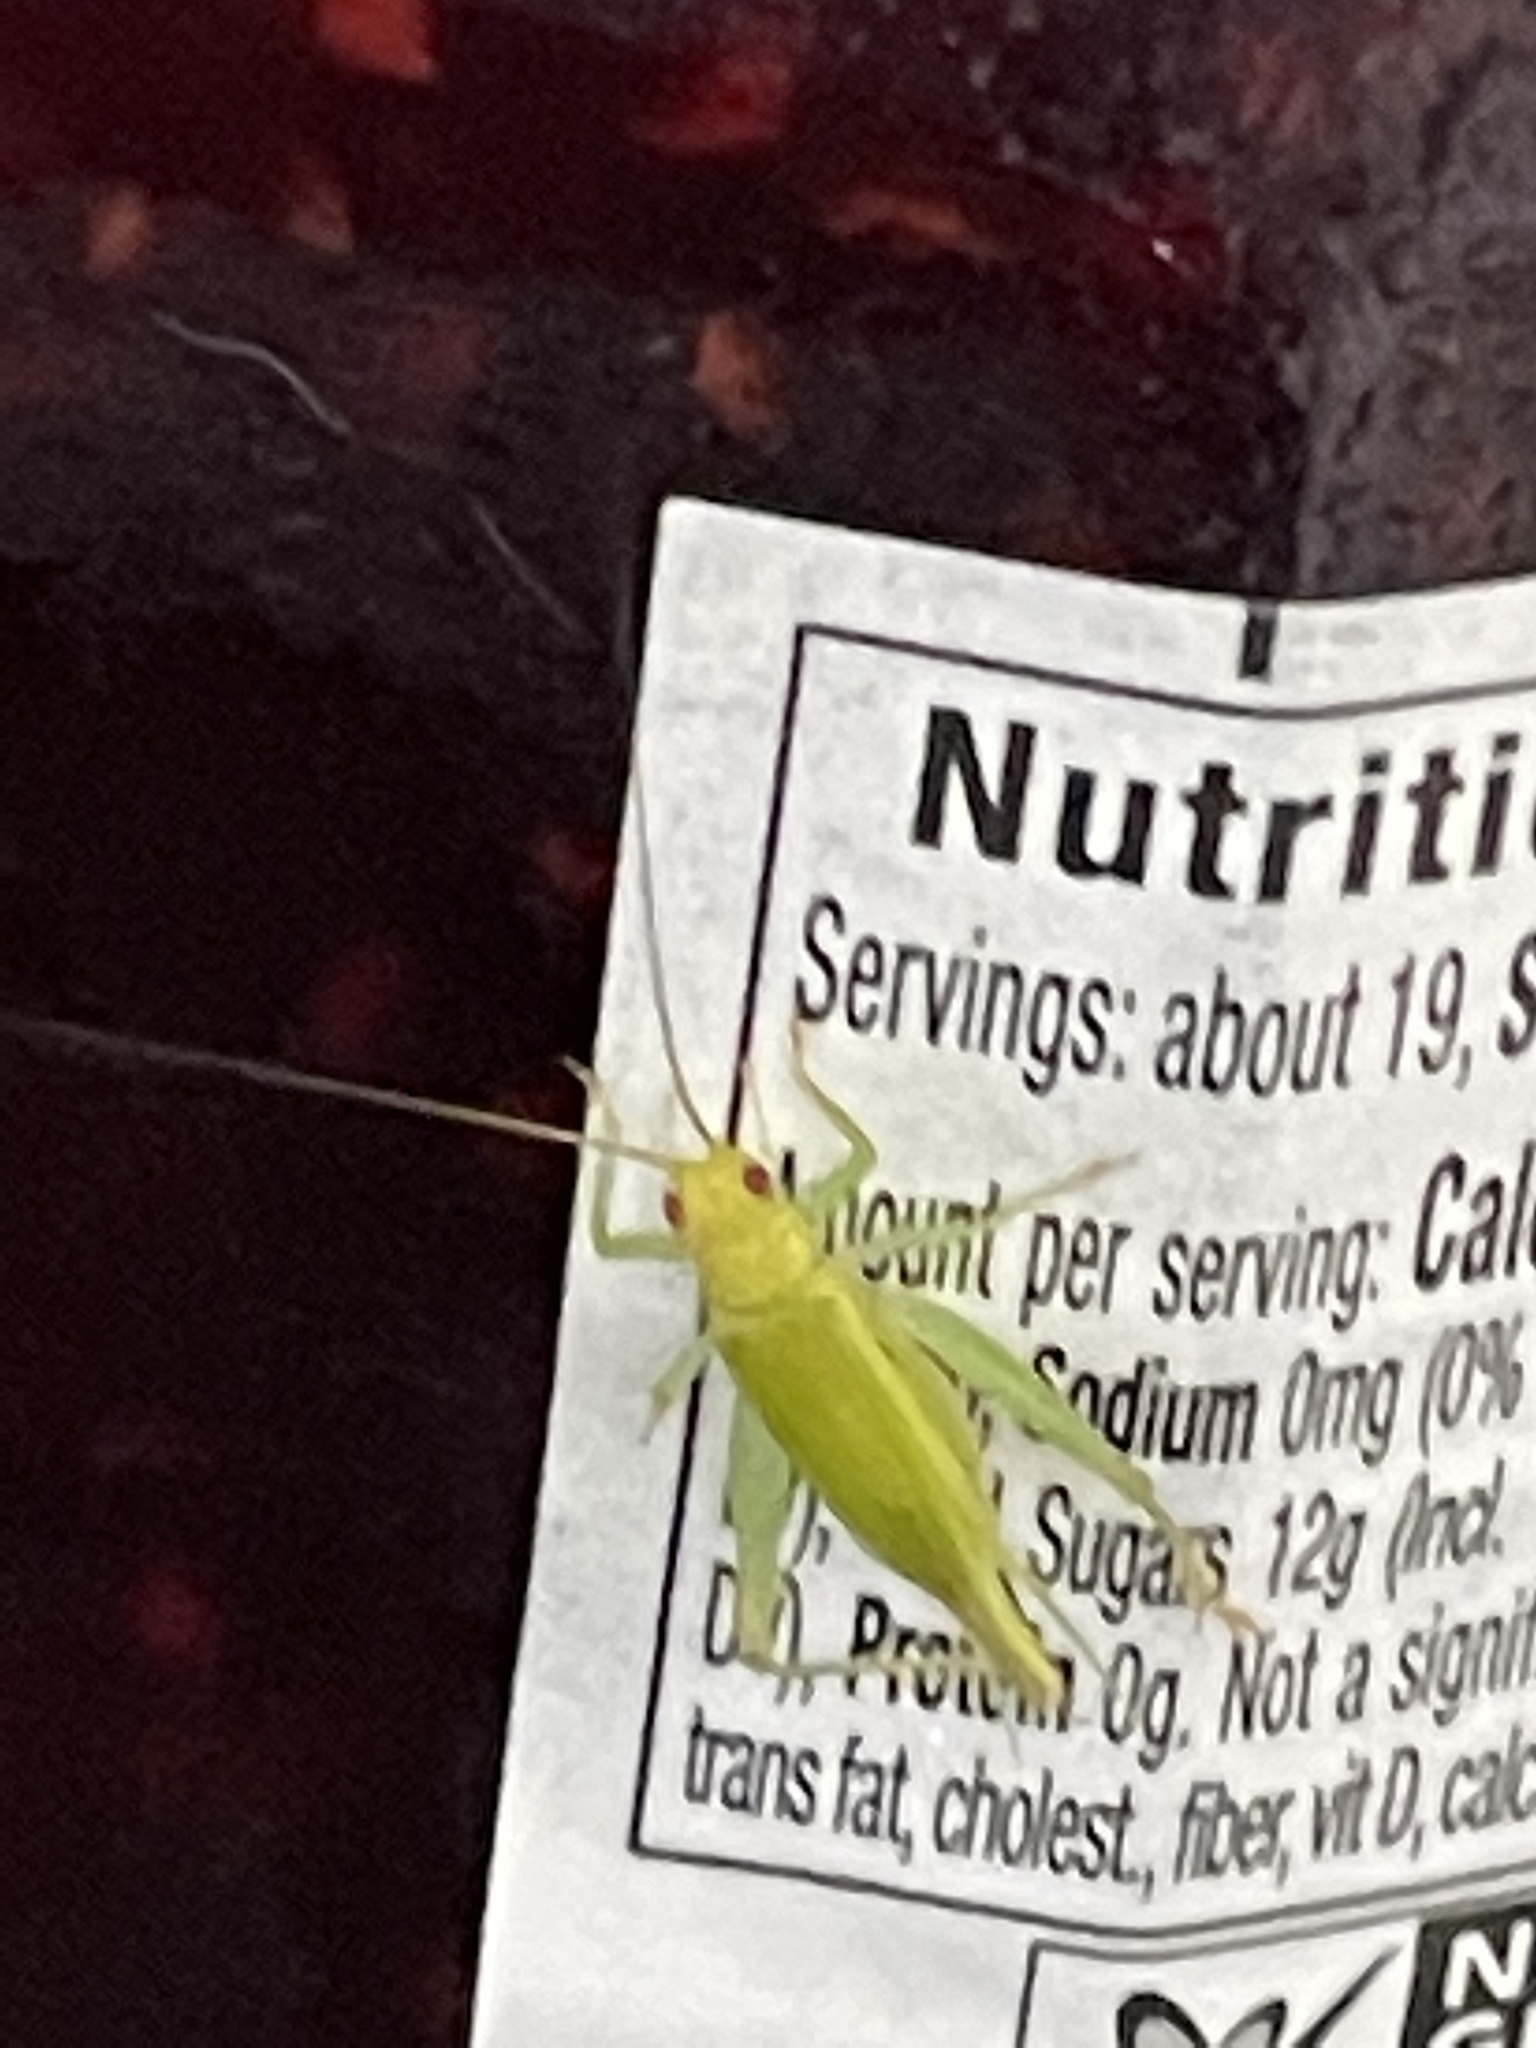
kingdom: Animalia
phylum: Arthropoda
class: Insecta
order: Orthoptera
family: Trigonidiidae
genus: Cyrtoxipha
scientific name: Cyrtoxipha columbiana
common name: Columbian trig
